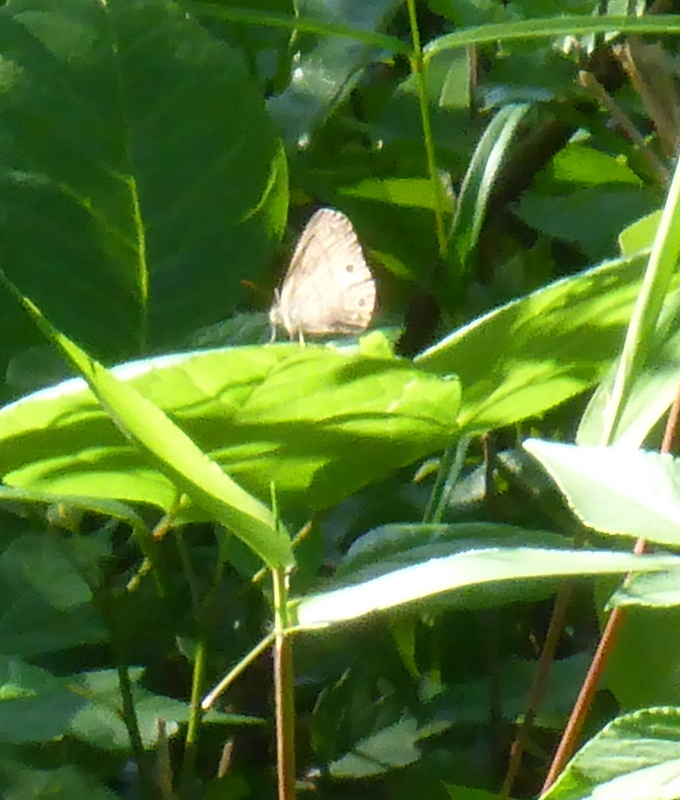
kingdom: Animalia
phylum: Arthropoda
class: Insecta
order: Lepidoptera
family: Nymphalidae
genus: Hermeuptychia
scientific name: Hermeuptychia intricata
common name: Intricate satyr
